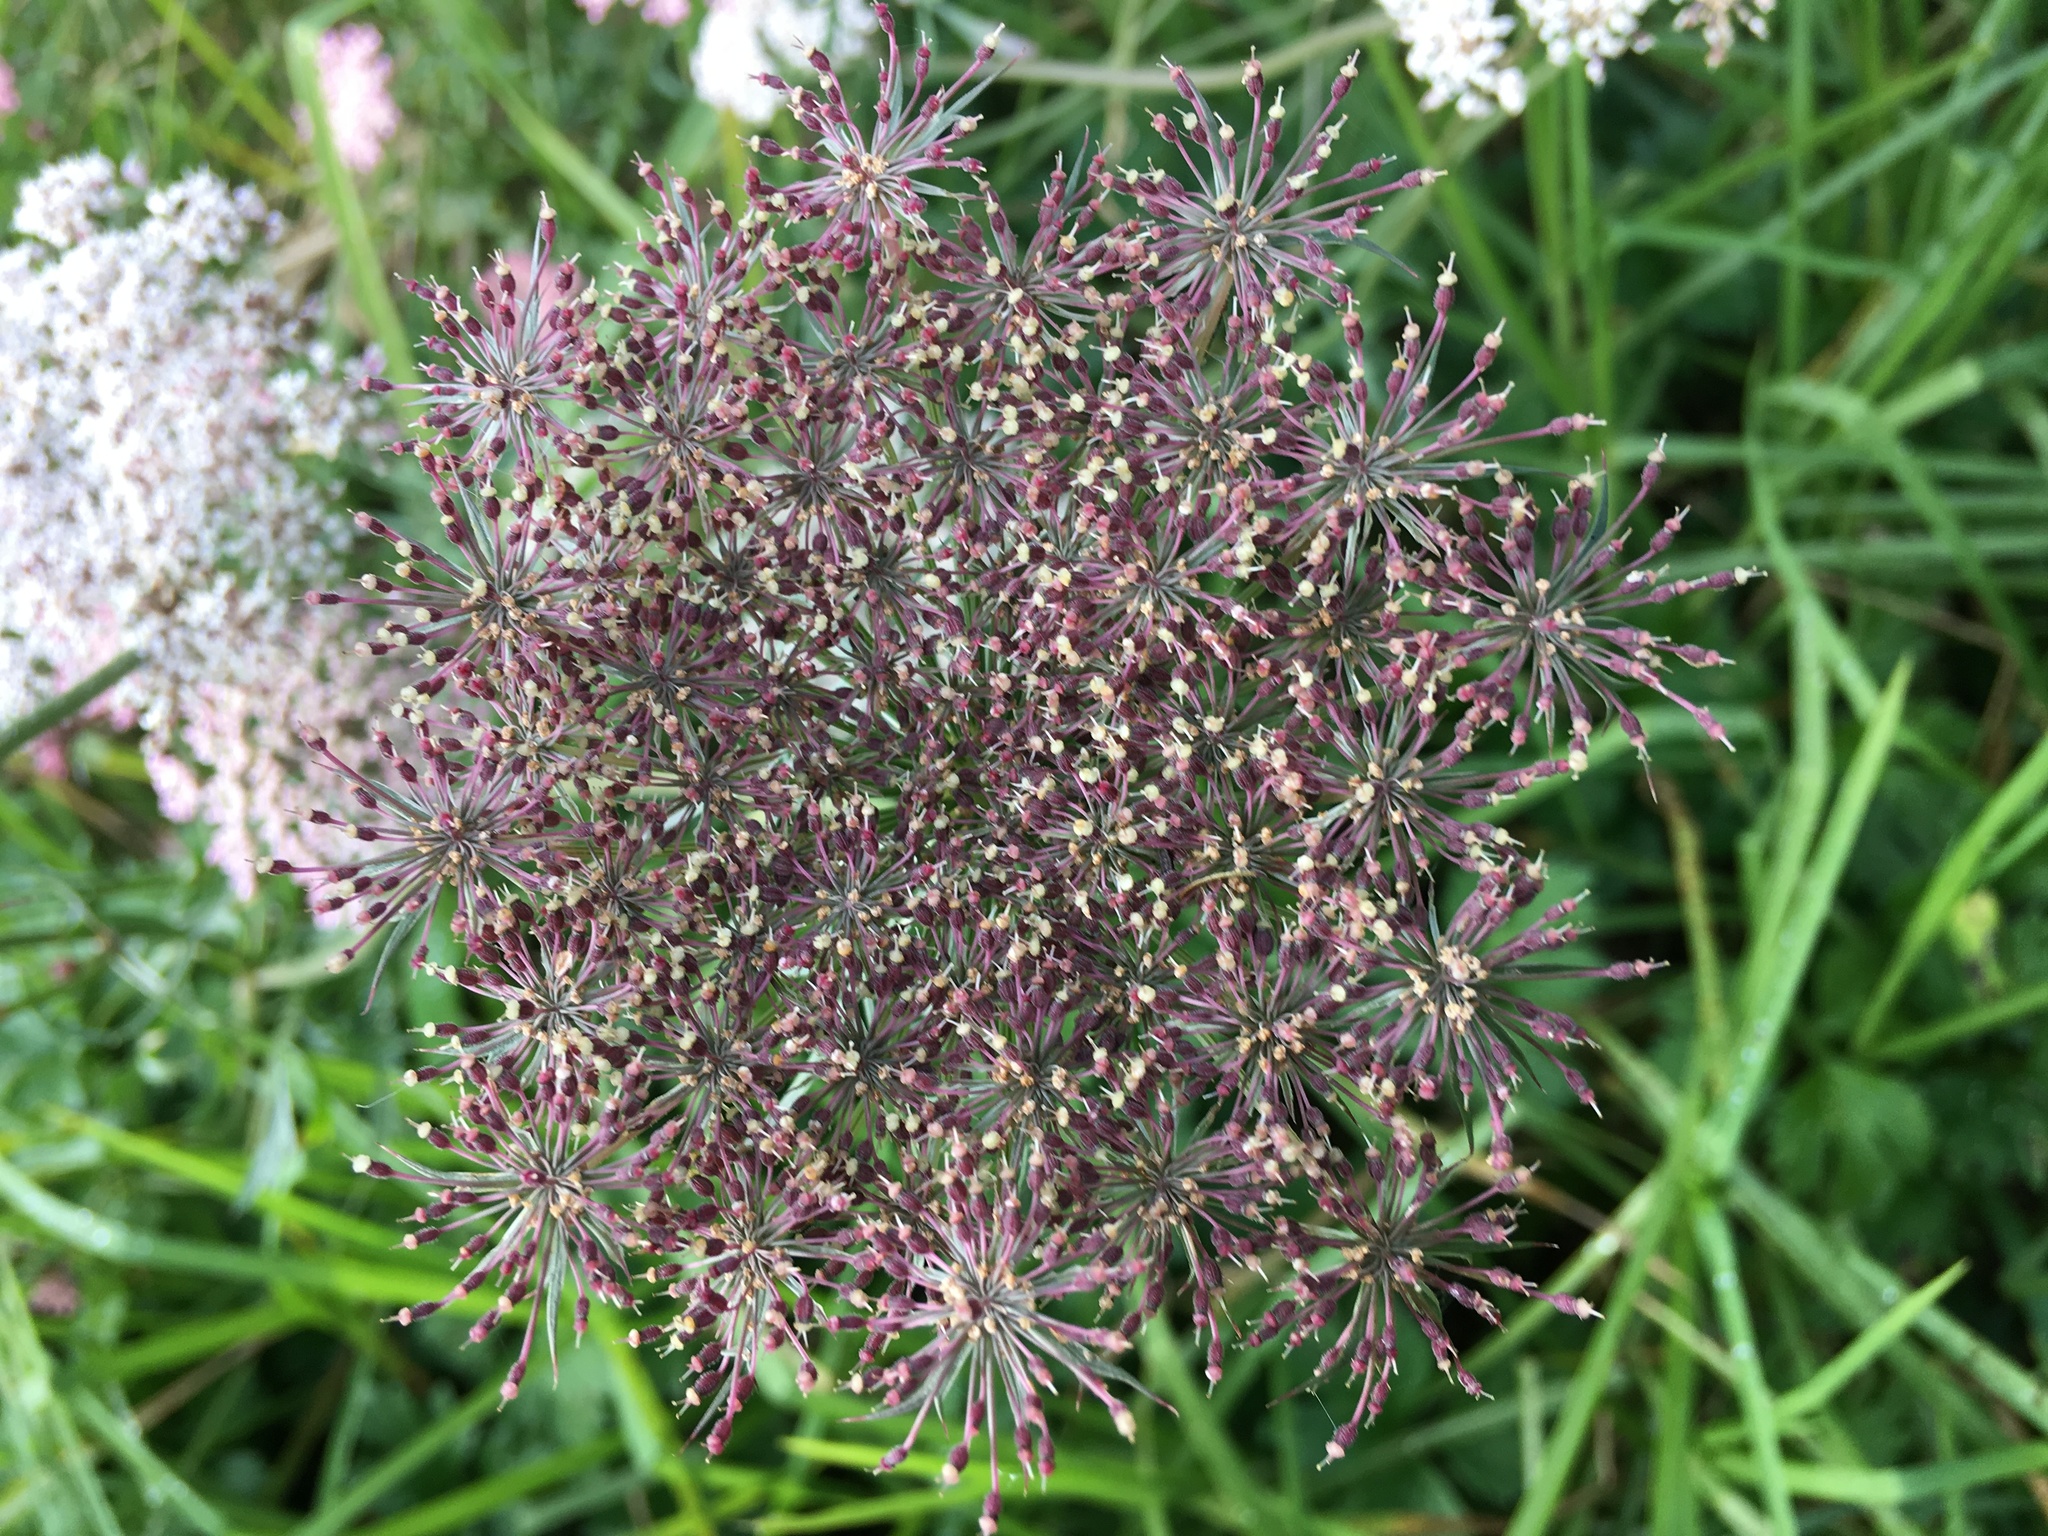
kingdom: Plantae
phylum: Tracheophyta
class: Magnoliopsida
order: Apiales
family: Apiaceae
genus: Daucus
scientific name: Daucus carota
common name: Wild carrot
